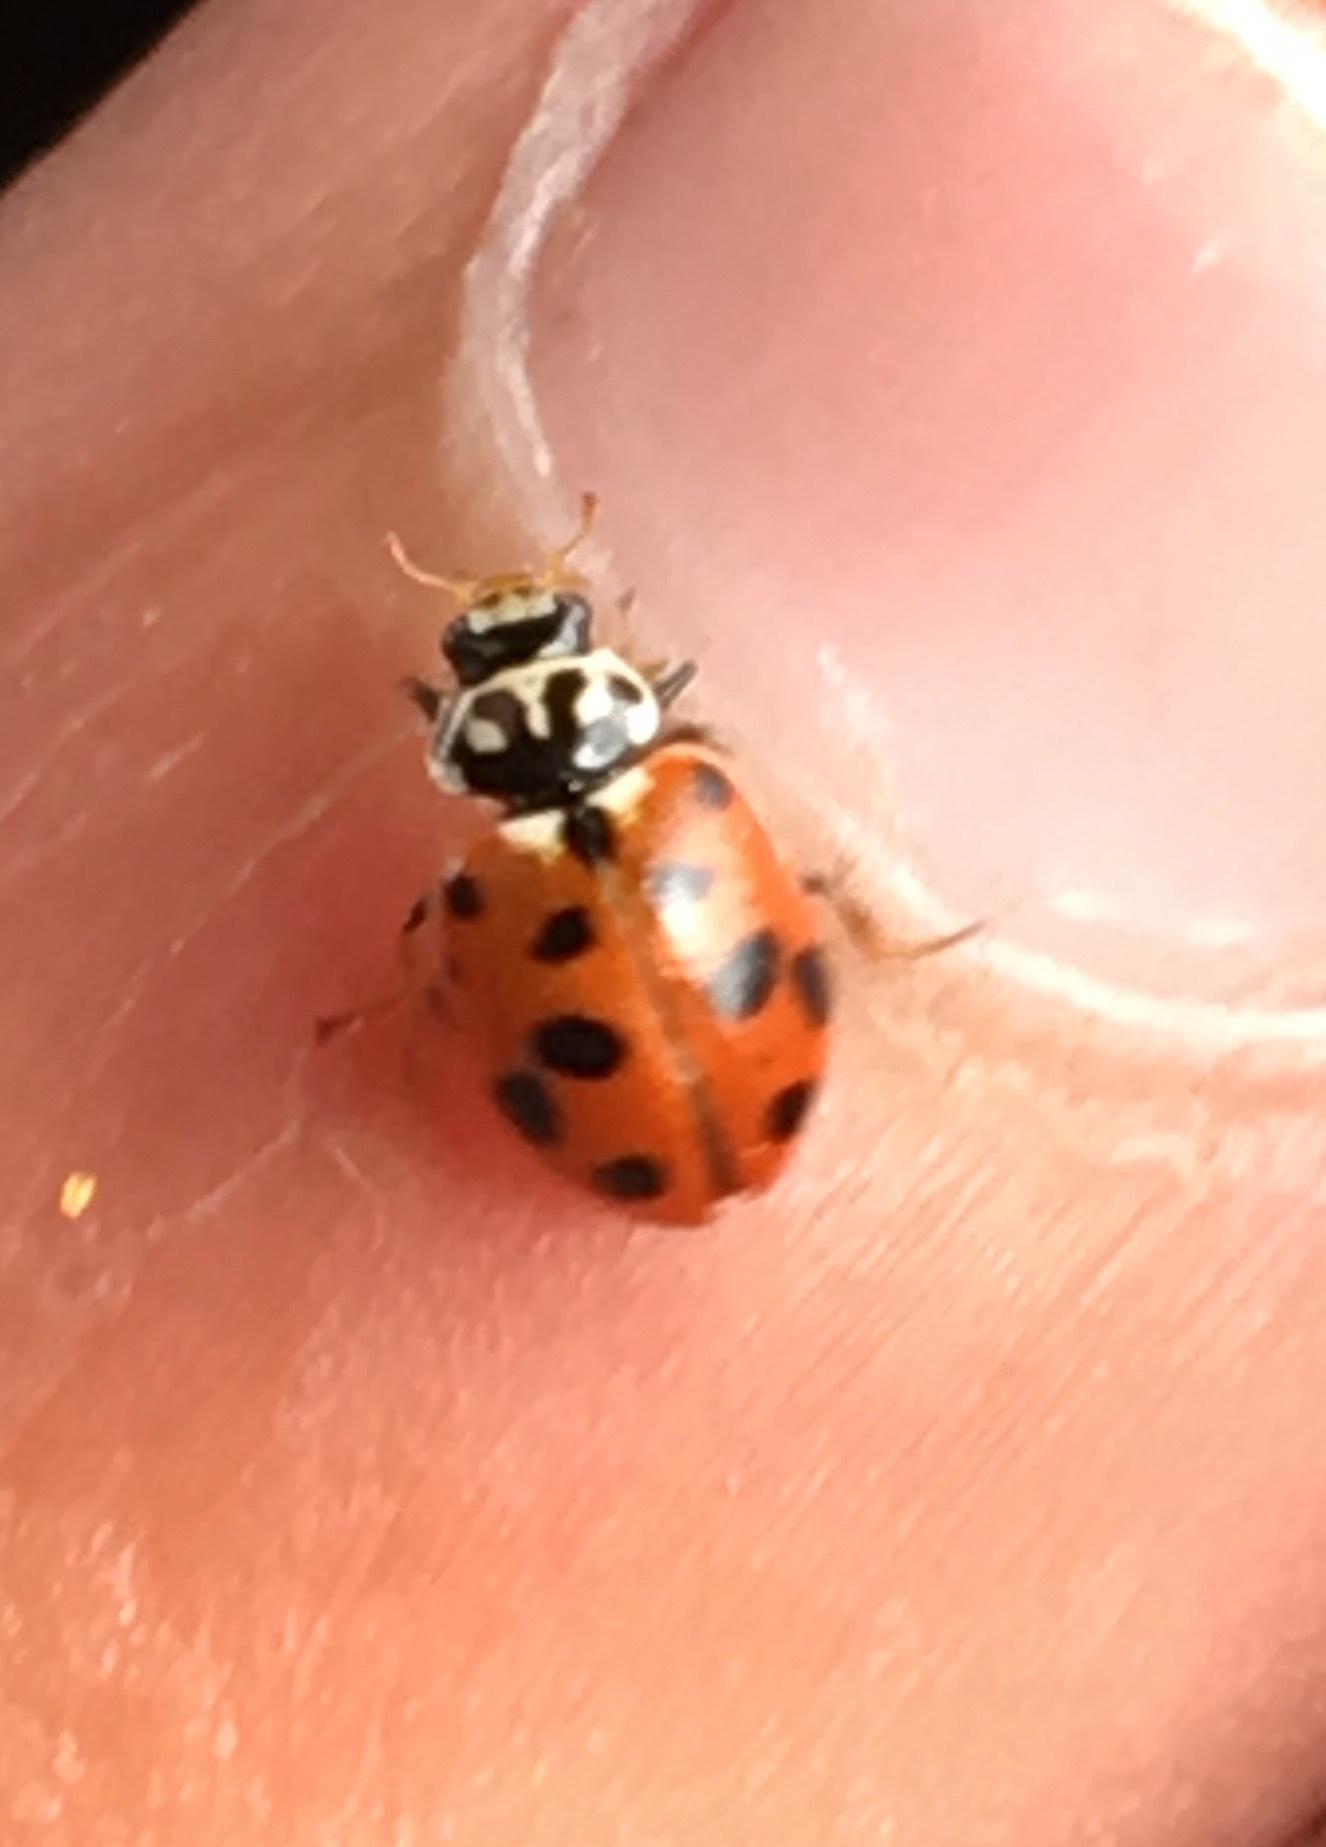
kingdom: Animalia
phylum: Arthropoda
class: Insecta
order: Coleoptera
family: Coccinellidae
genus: Hippodamia
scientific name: Hippodamia variegata
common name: Ladybird beetle
